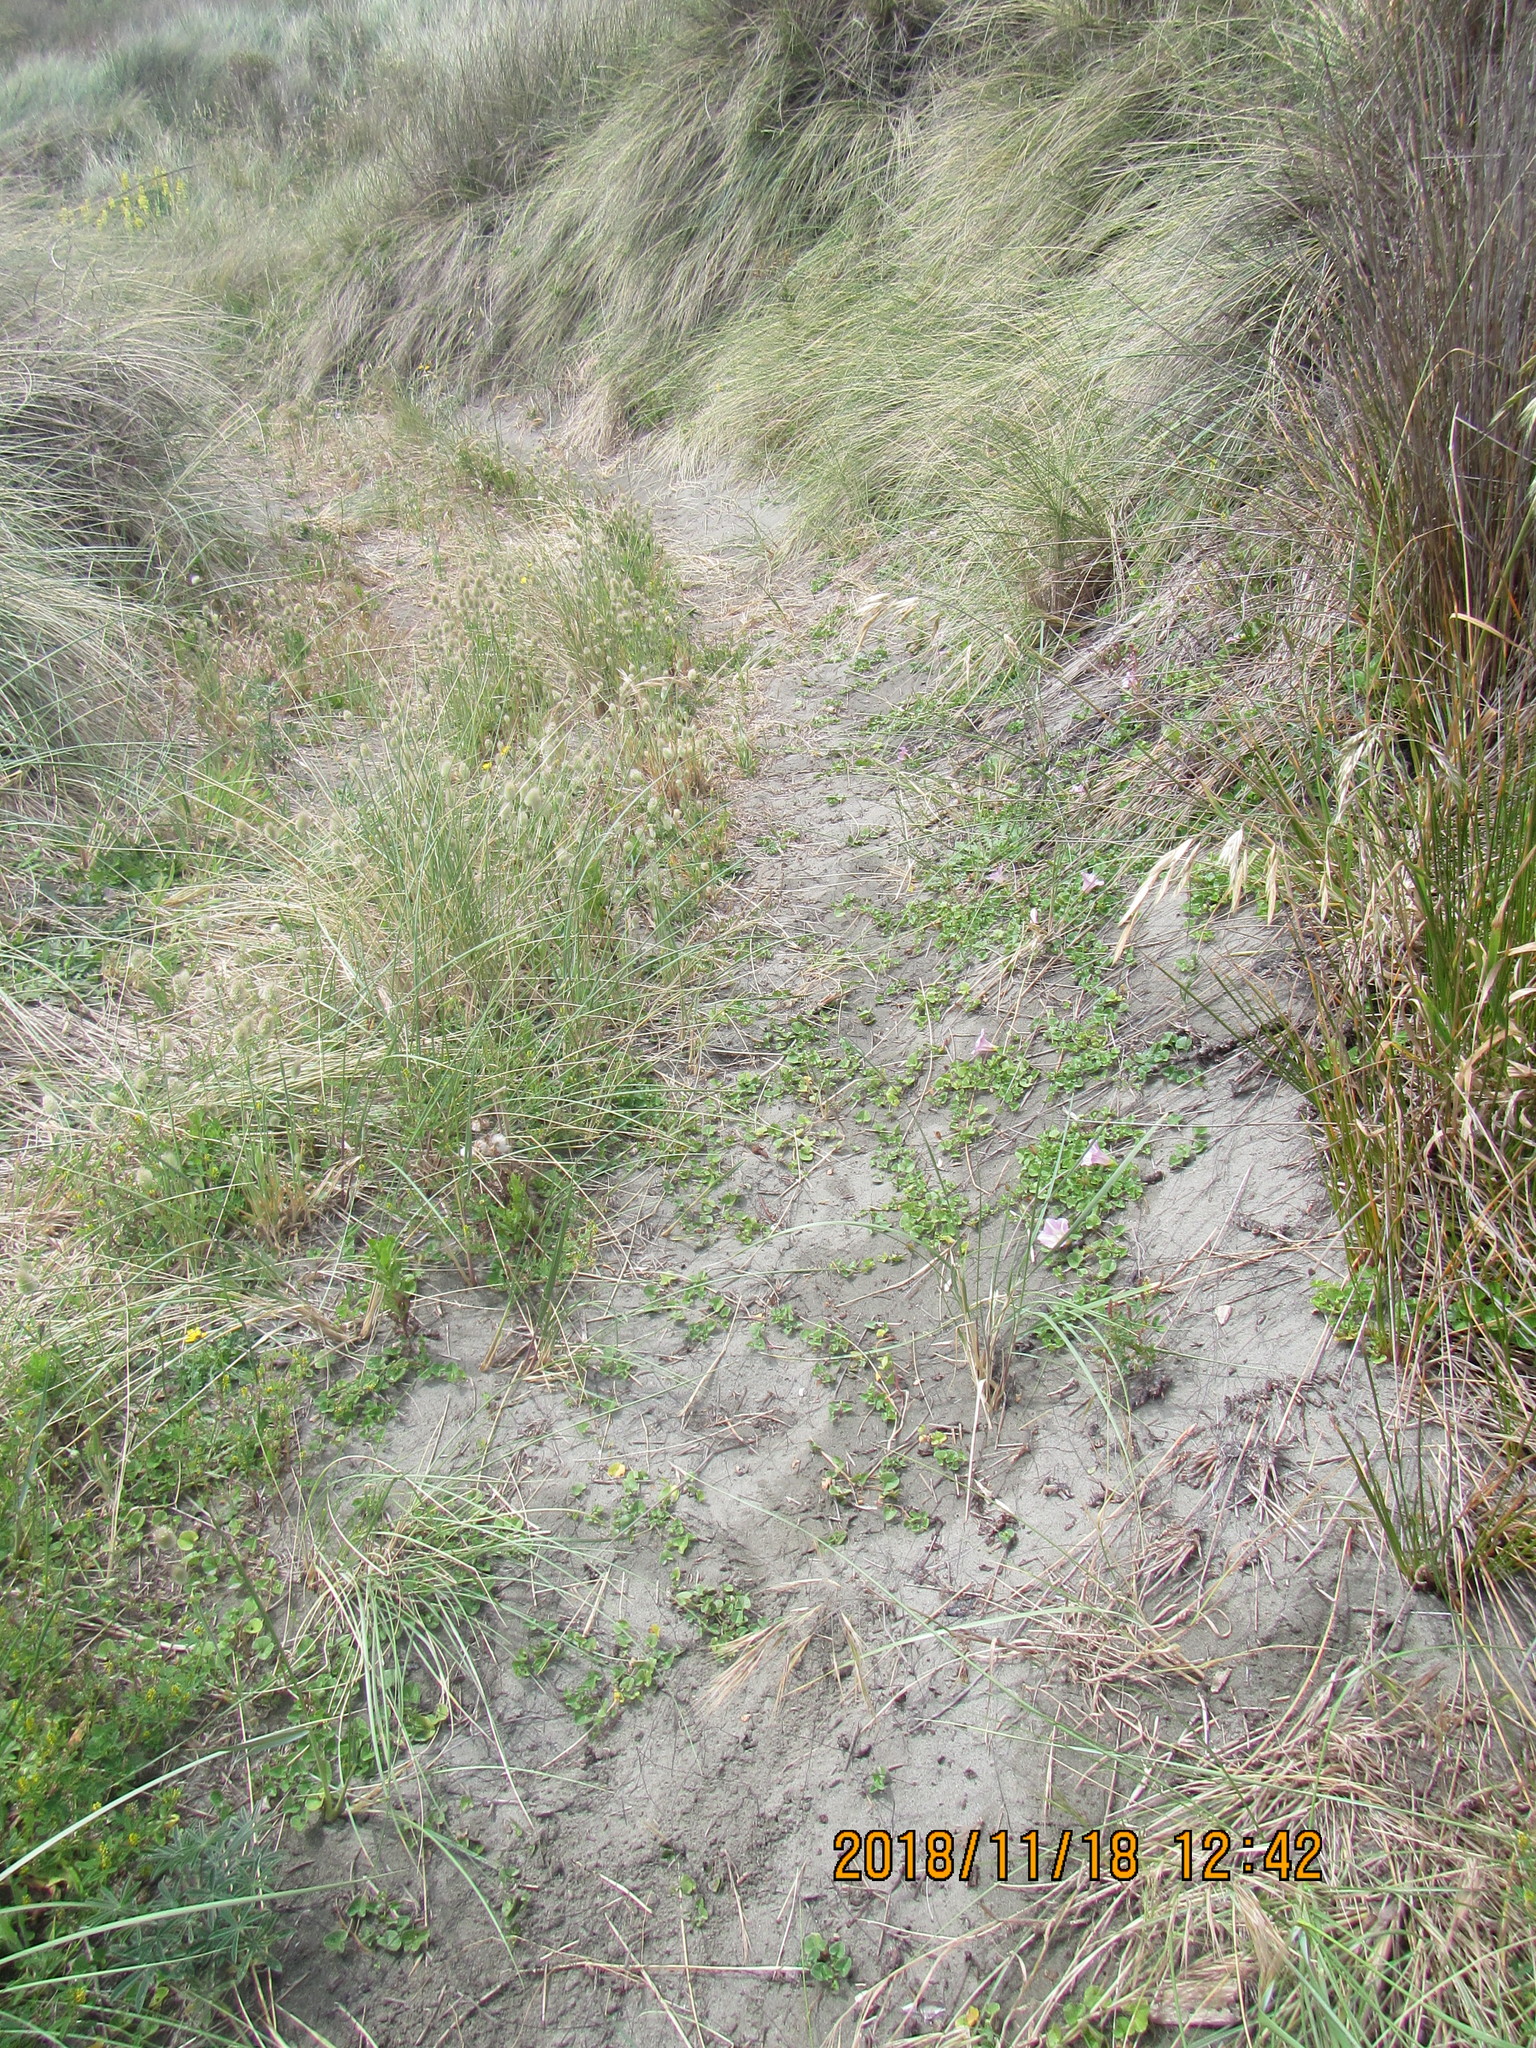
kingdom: Plantae
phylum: Tracheophyta
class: Magnoliopsida
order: Solanales
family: Convolvulaceae
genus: Calystegia
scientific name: Calystegia soldanella
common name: Sea bindweed
